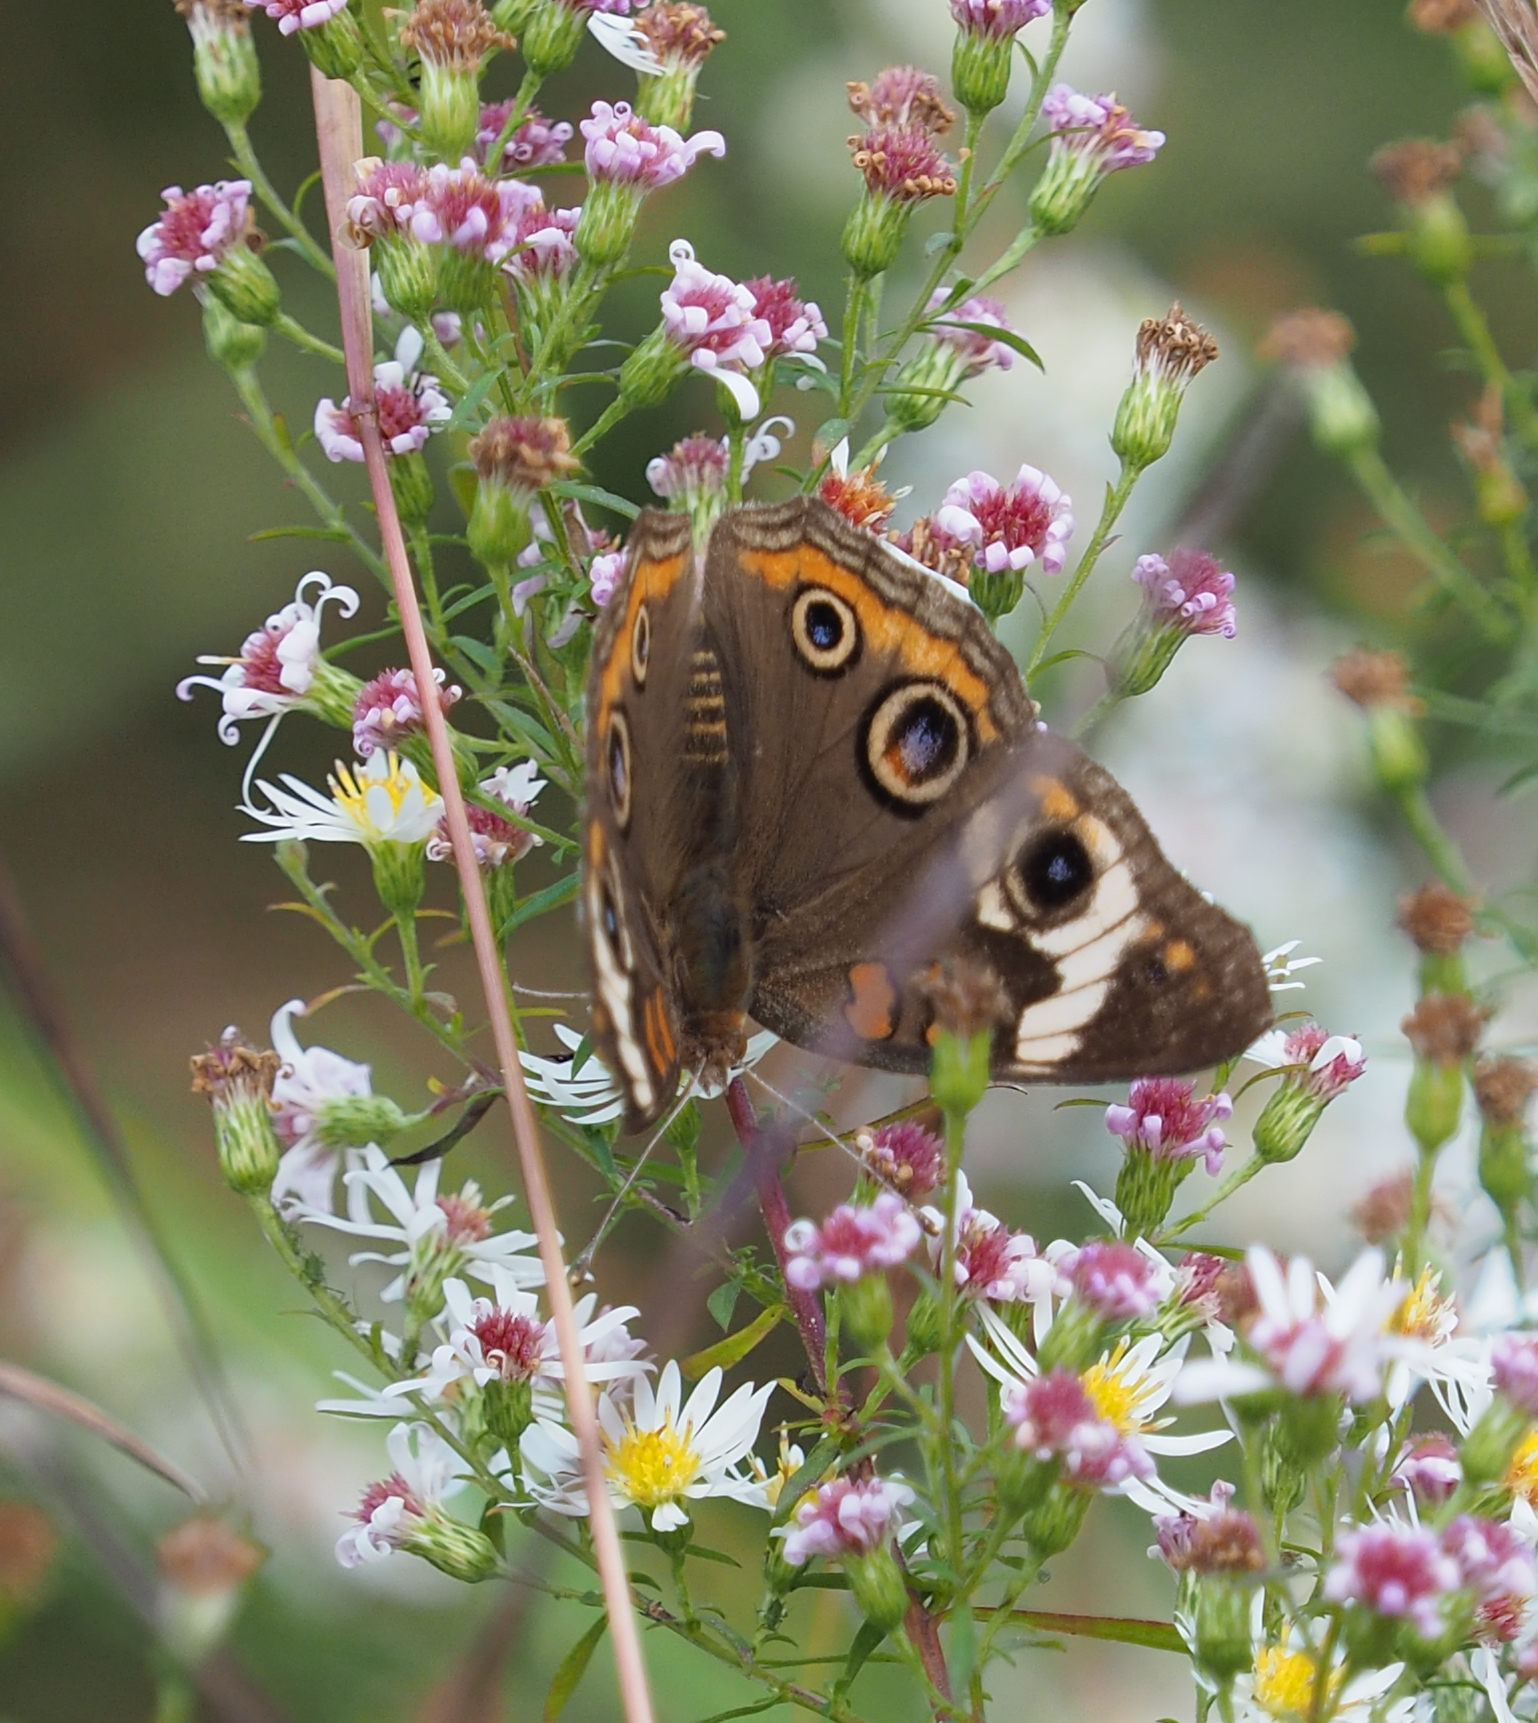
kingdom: Animalia
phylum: Arthropoda
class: Insecta
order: Lepidoptera
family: Nymphalidae
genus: Junonia
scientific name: Junonia coenia
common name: Common buckeye
